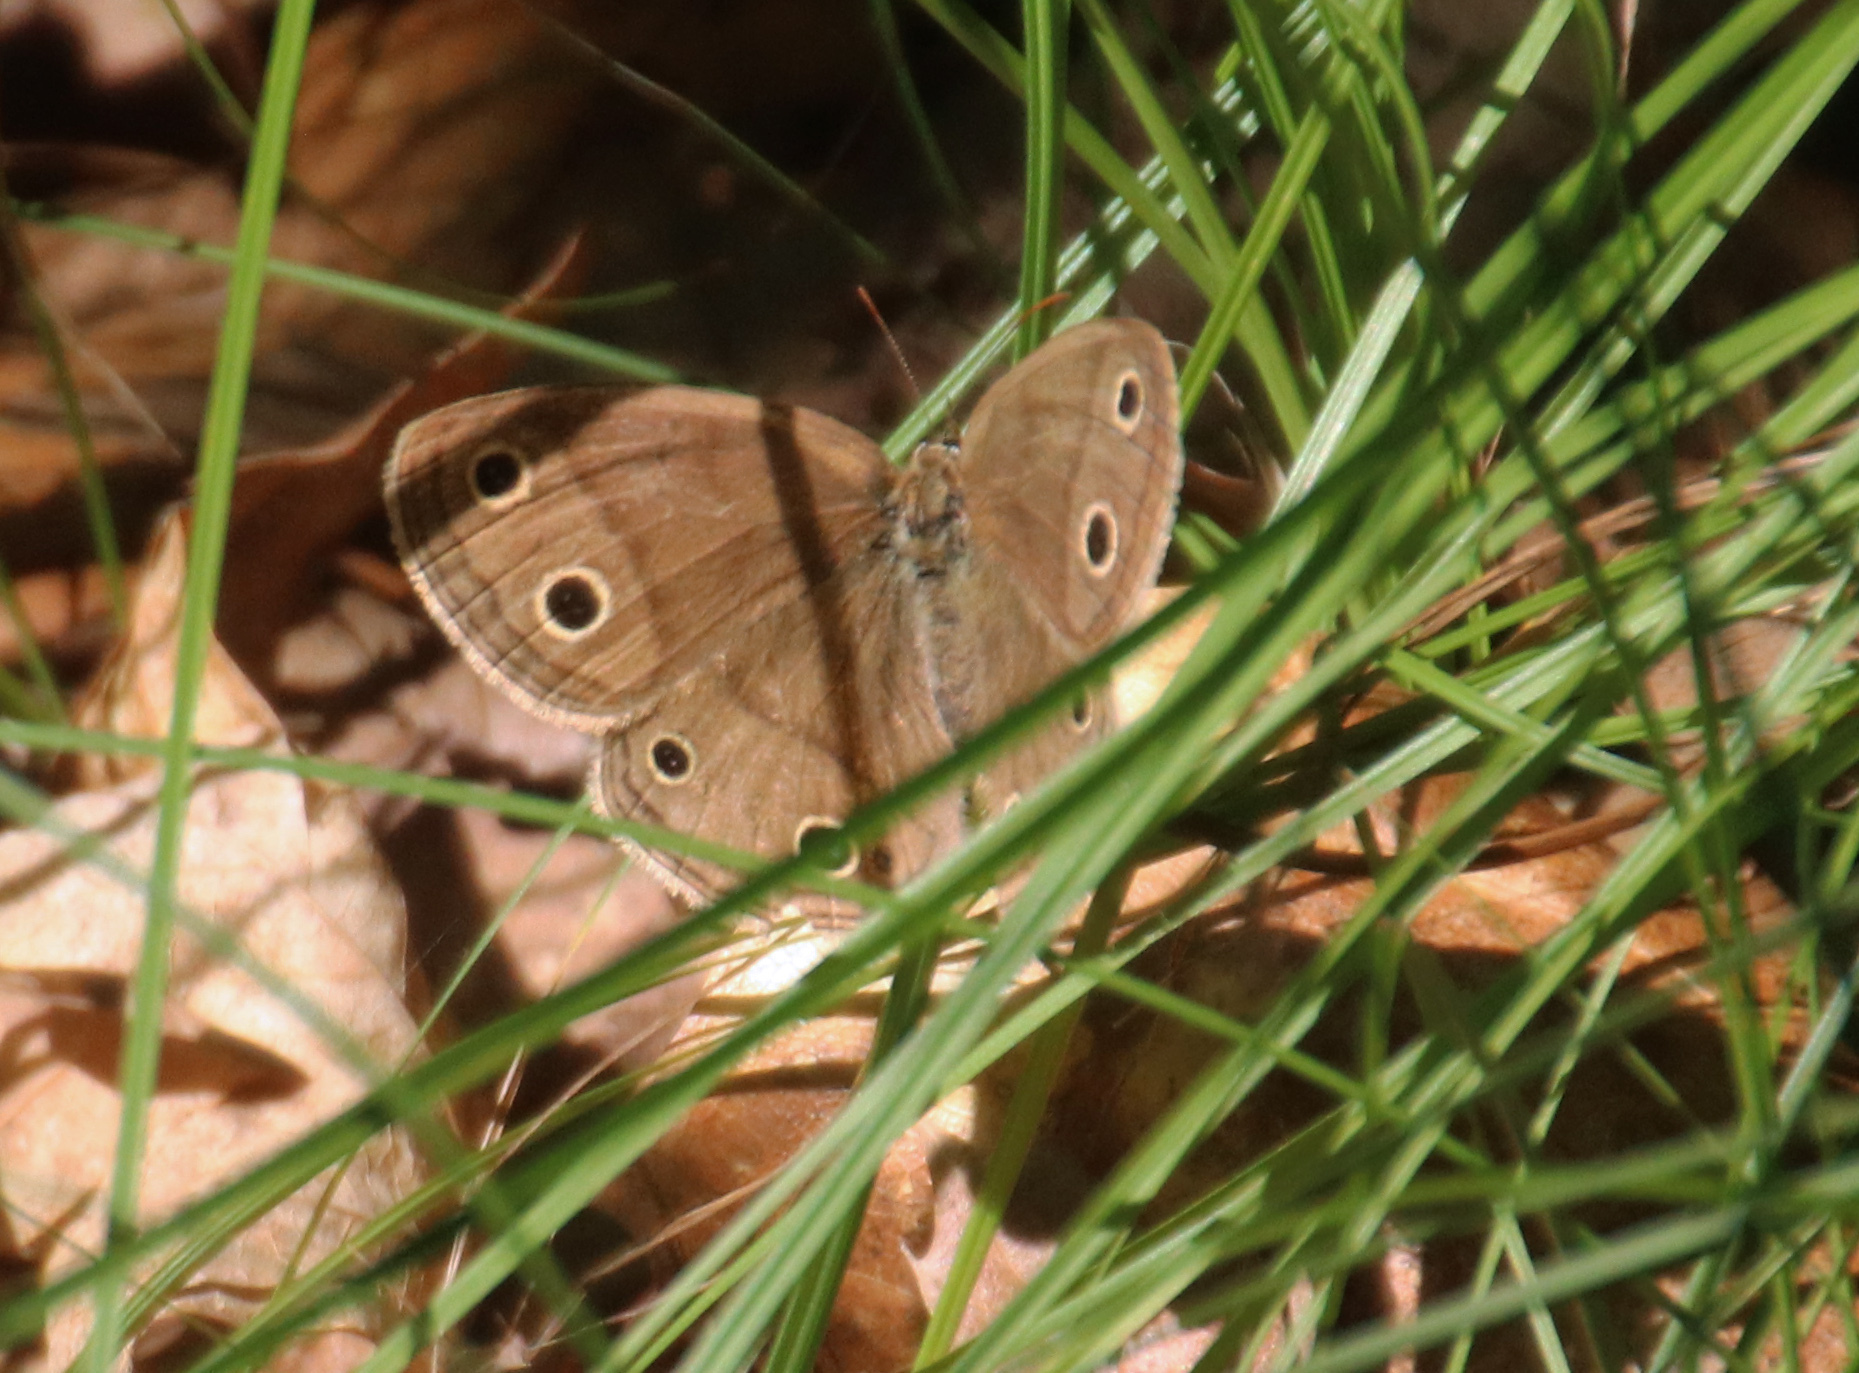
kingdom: Animalia
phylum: Arthropoda
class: Insecta
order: Lepidoptera
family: Nymphalidae
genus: Euptychia
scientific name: Euptychia cymela
